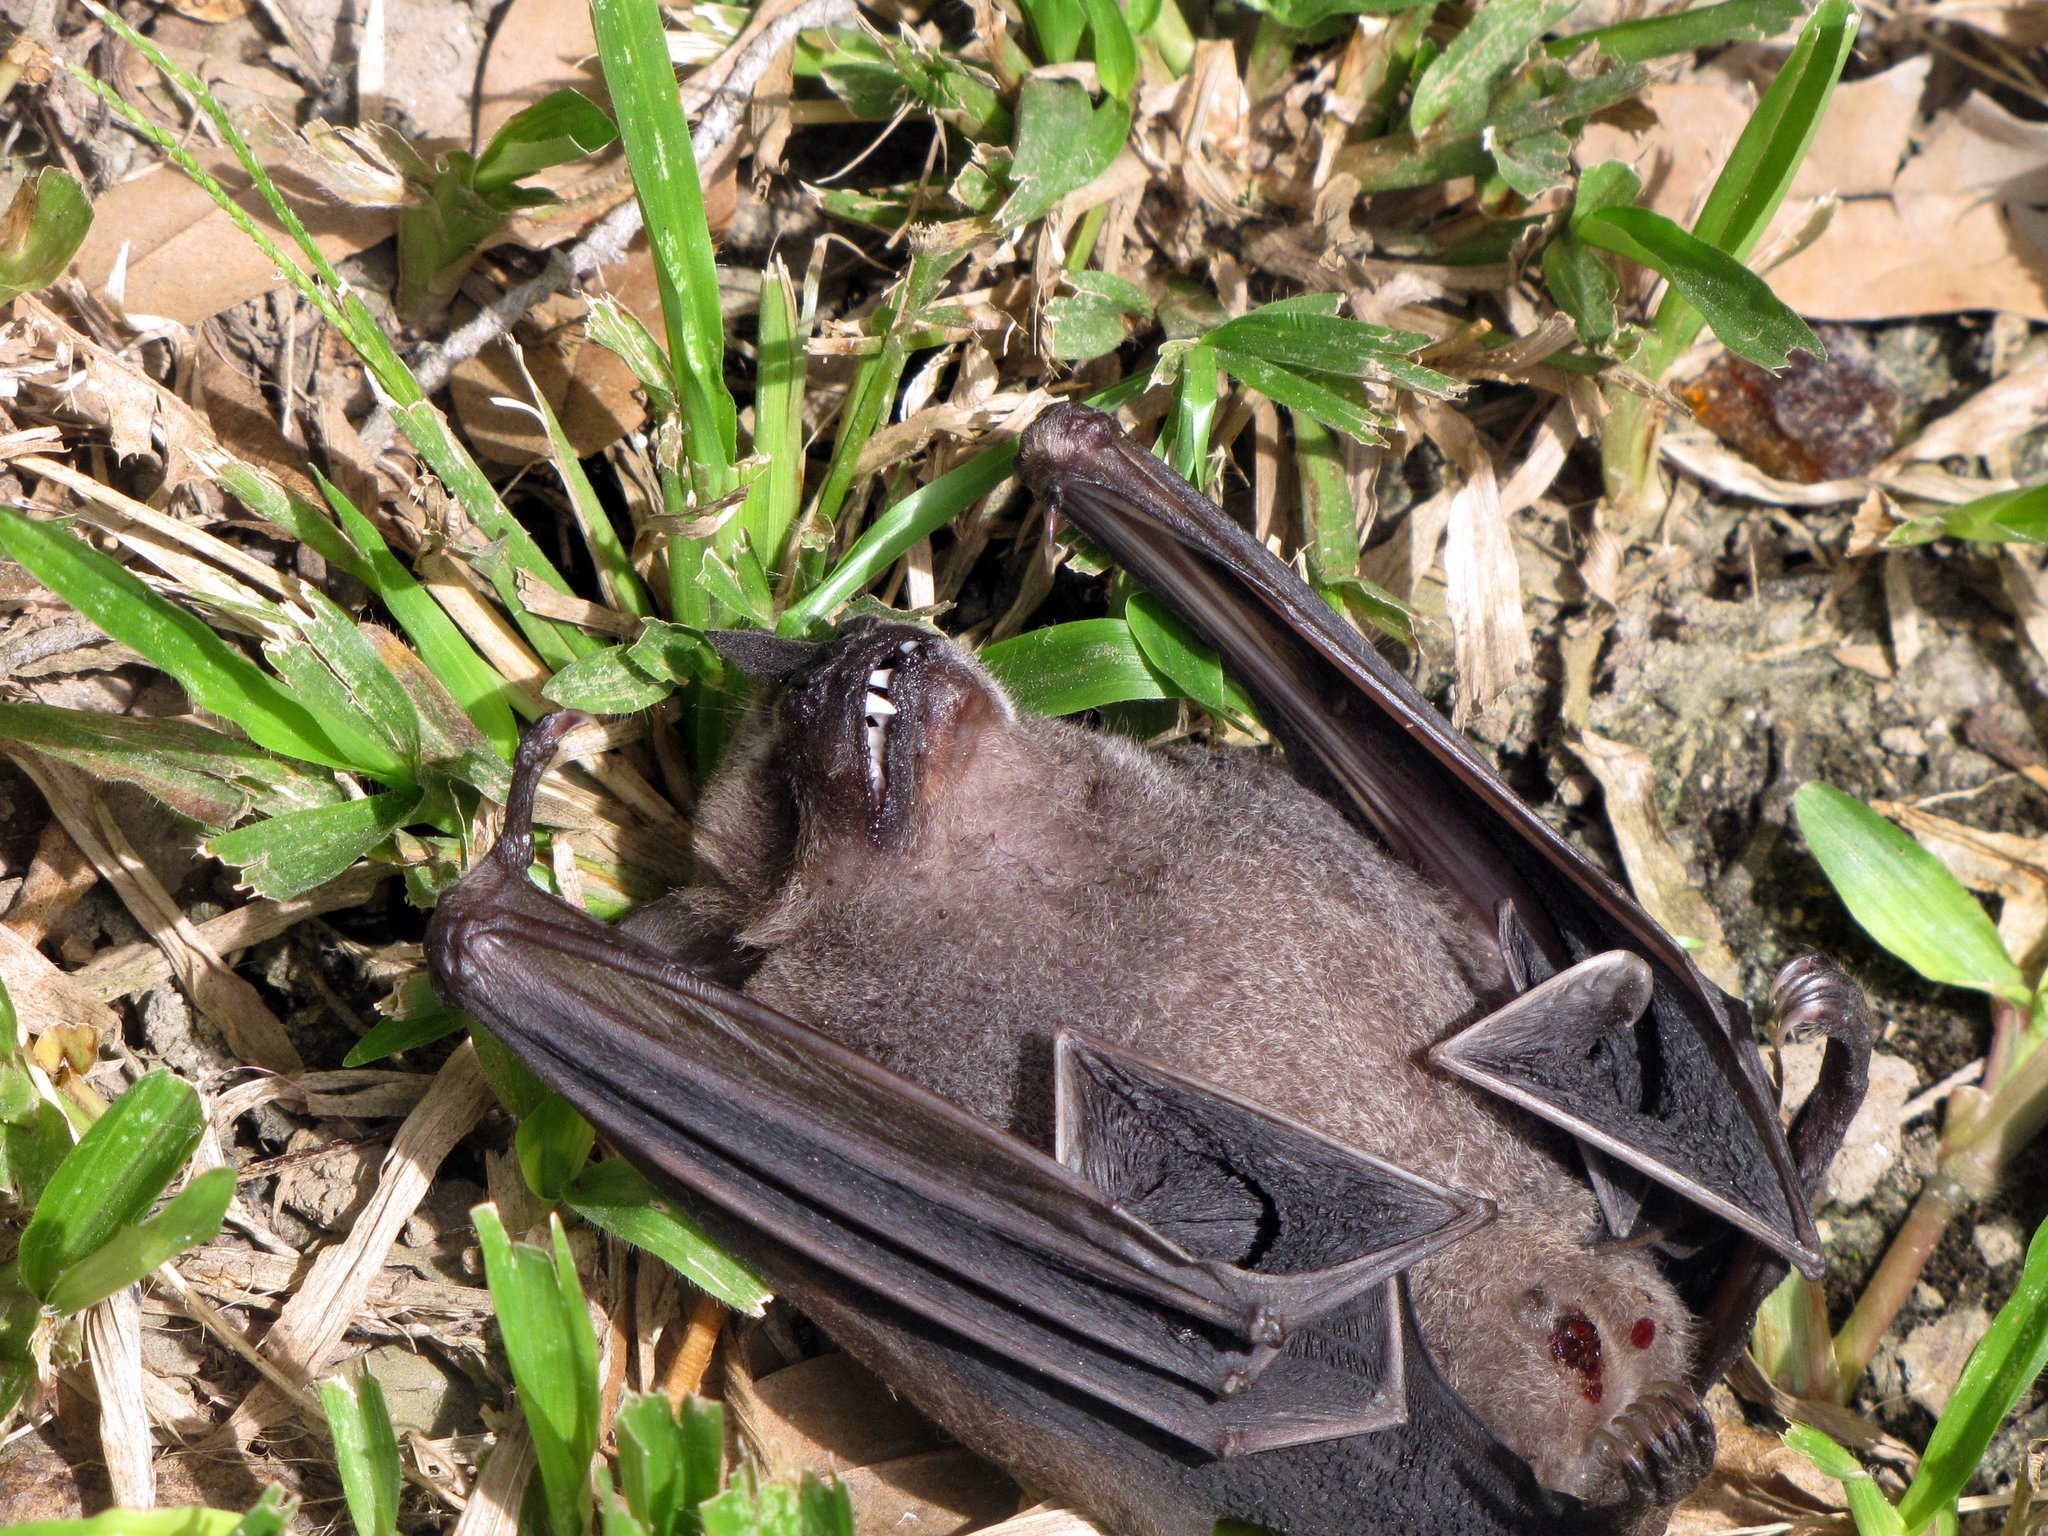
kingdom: Animalia
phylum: Chordata
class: Mammalia
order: Chiroptera
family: Phyllostomidae
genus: Artibeus
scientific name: Artibeus jamaicensis
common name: Jamaican fruit-eating bat
